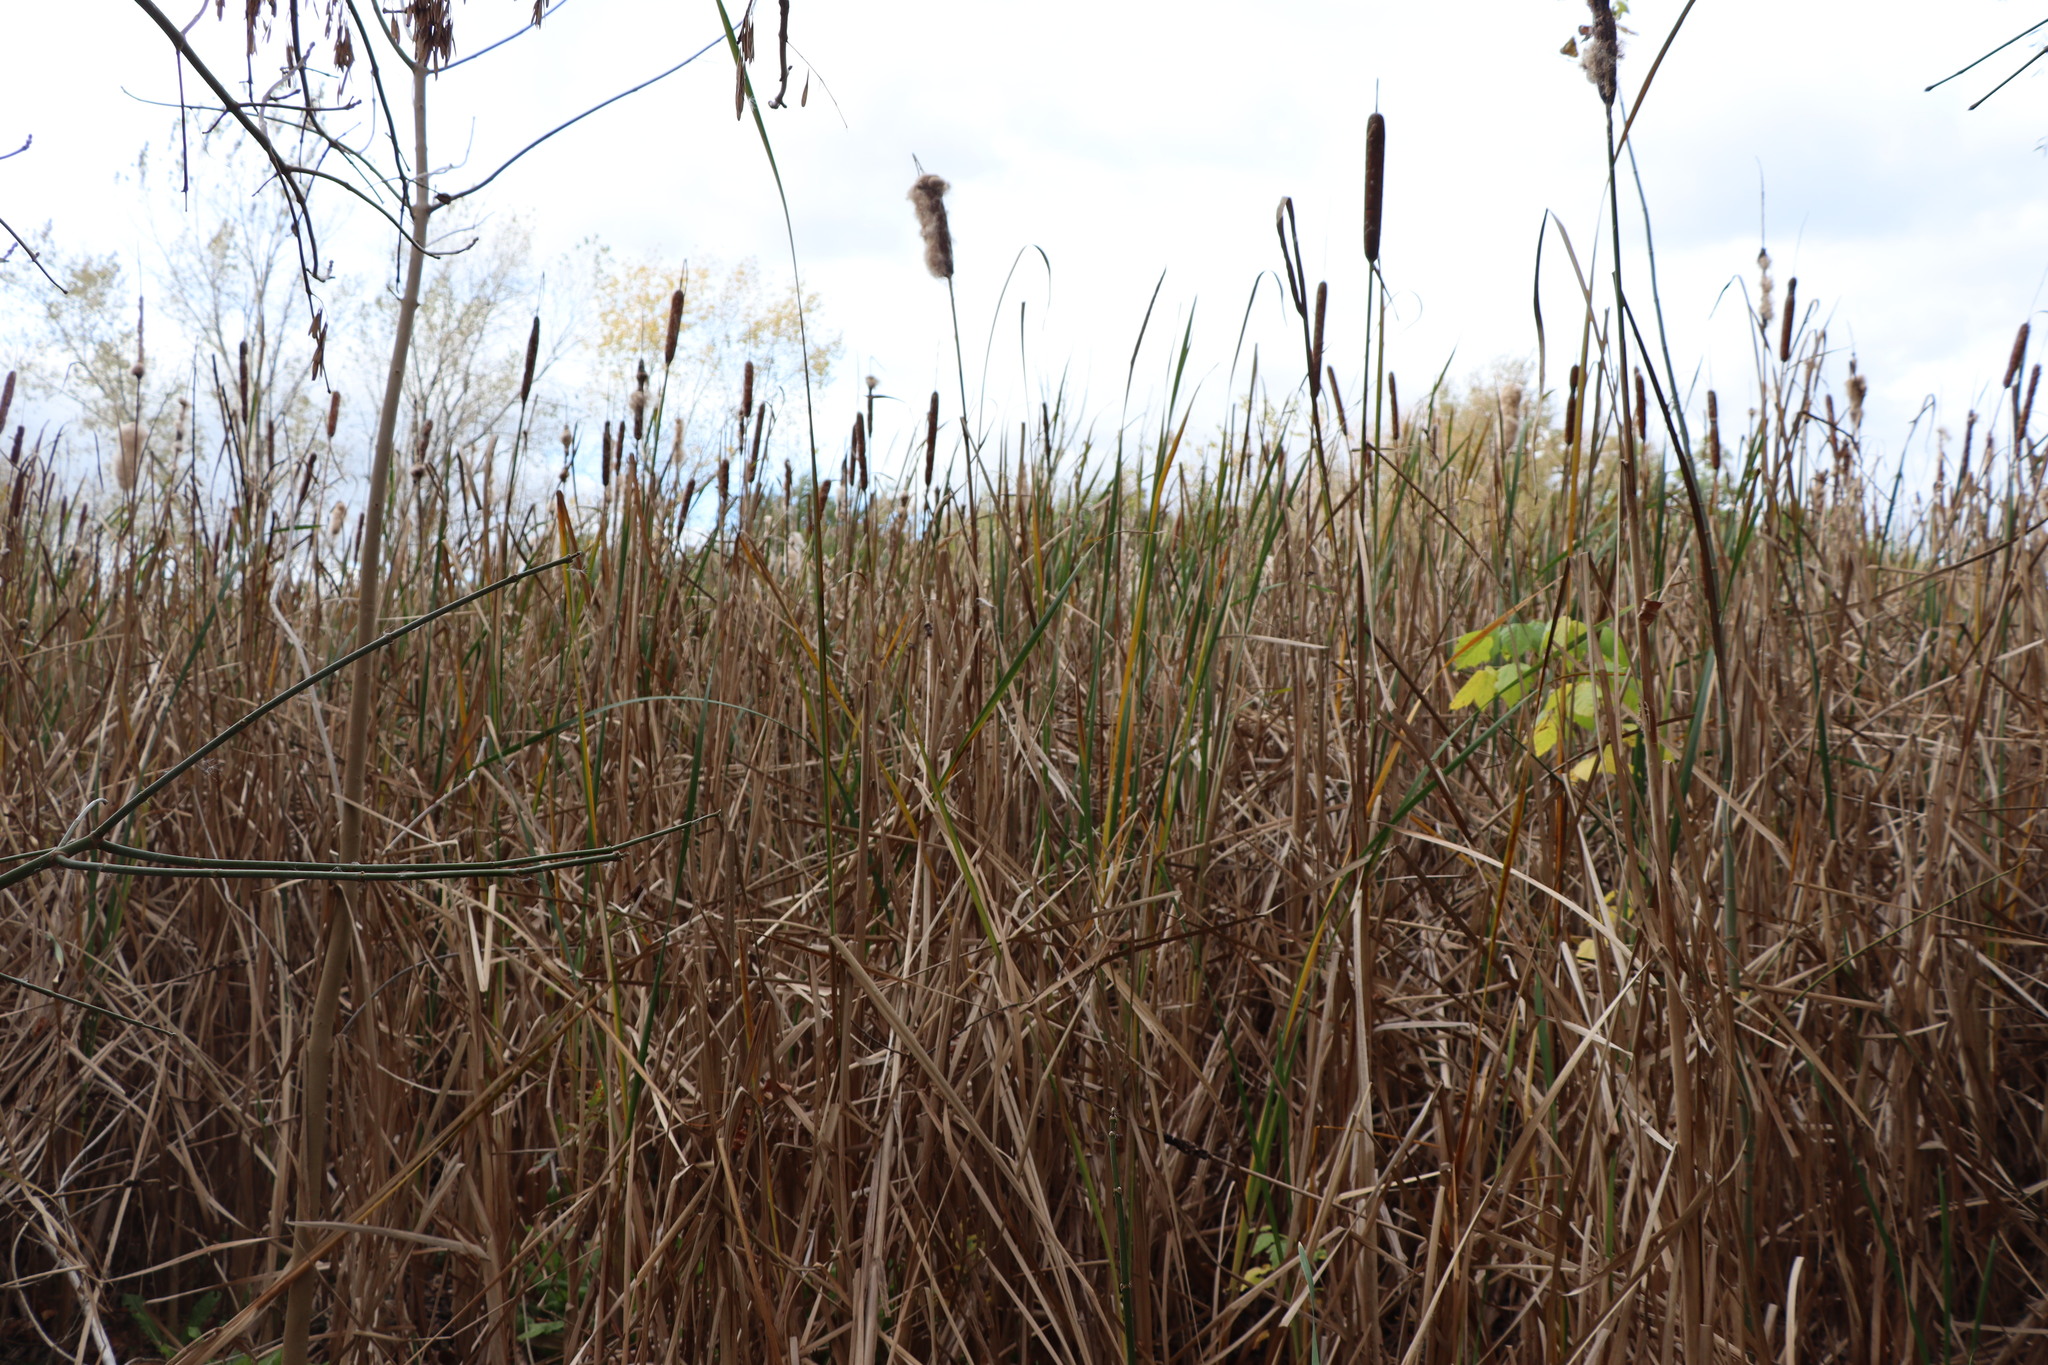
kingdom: Plantae
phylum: Tracheophyta
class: Liliopsida
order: Poales
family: Typhaceae
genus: Typha
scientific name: Typha latifolia
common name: Broadleaf cattail
